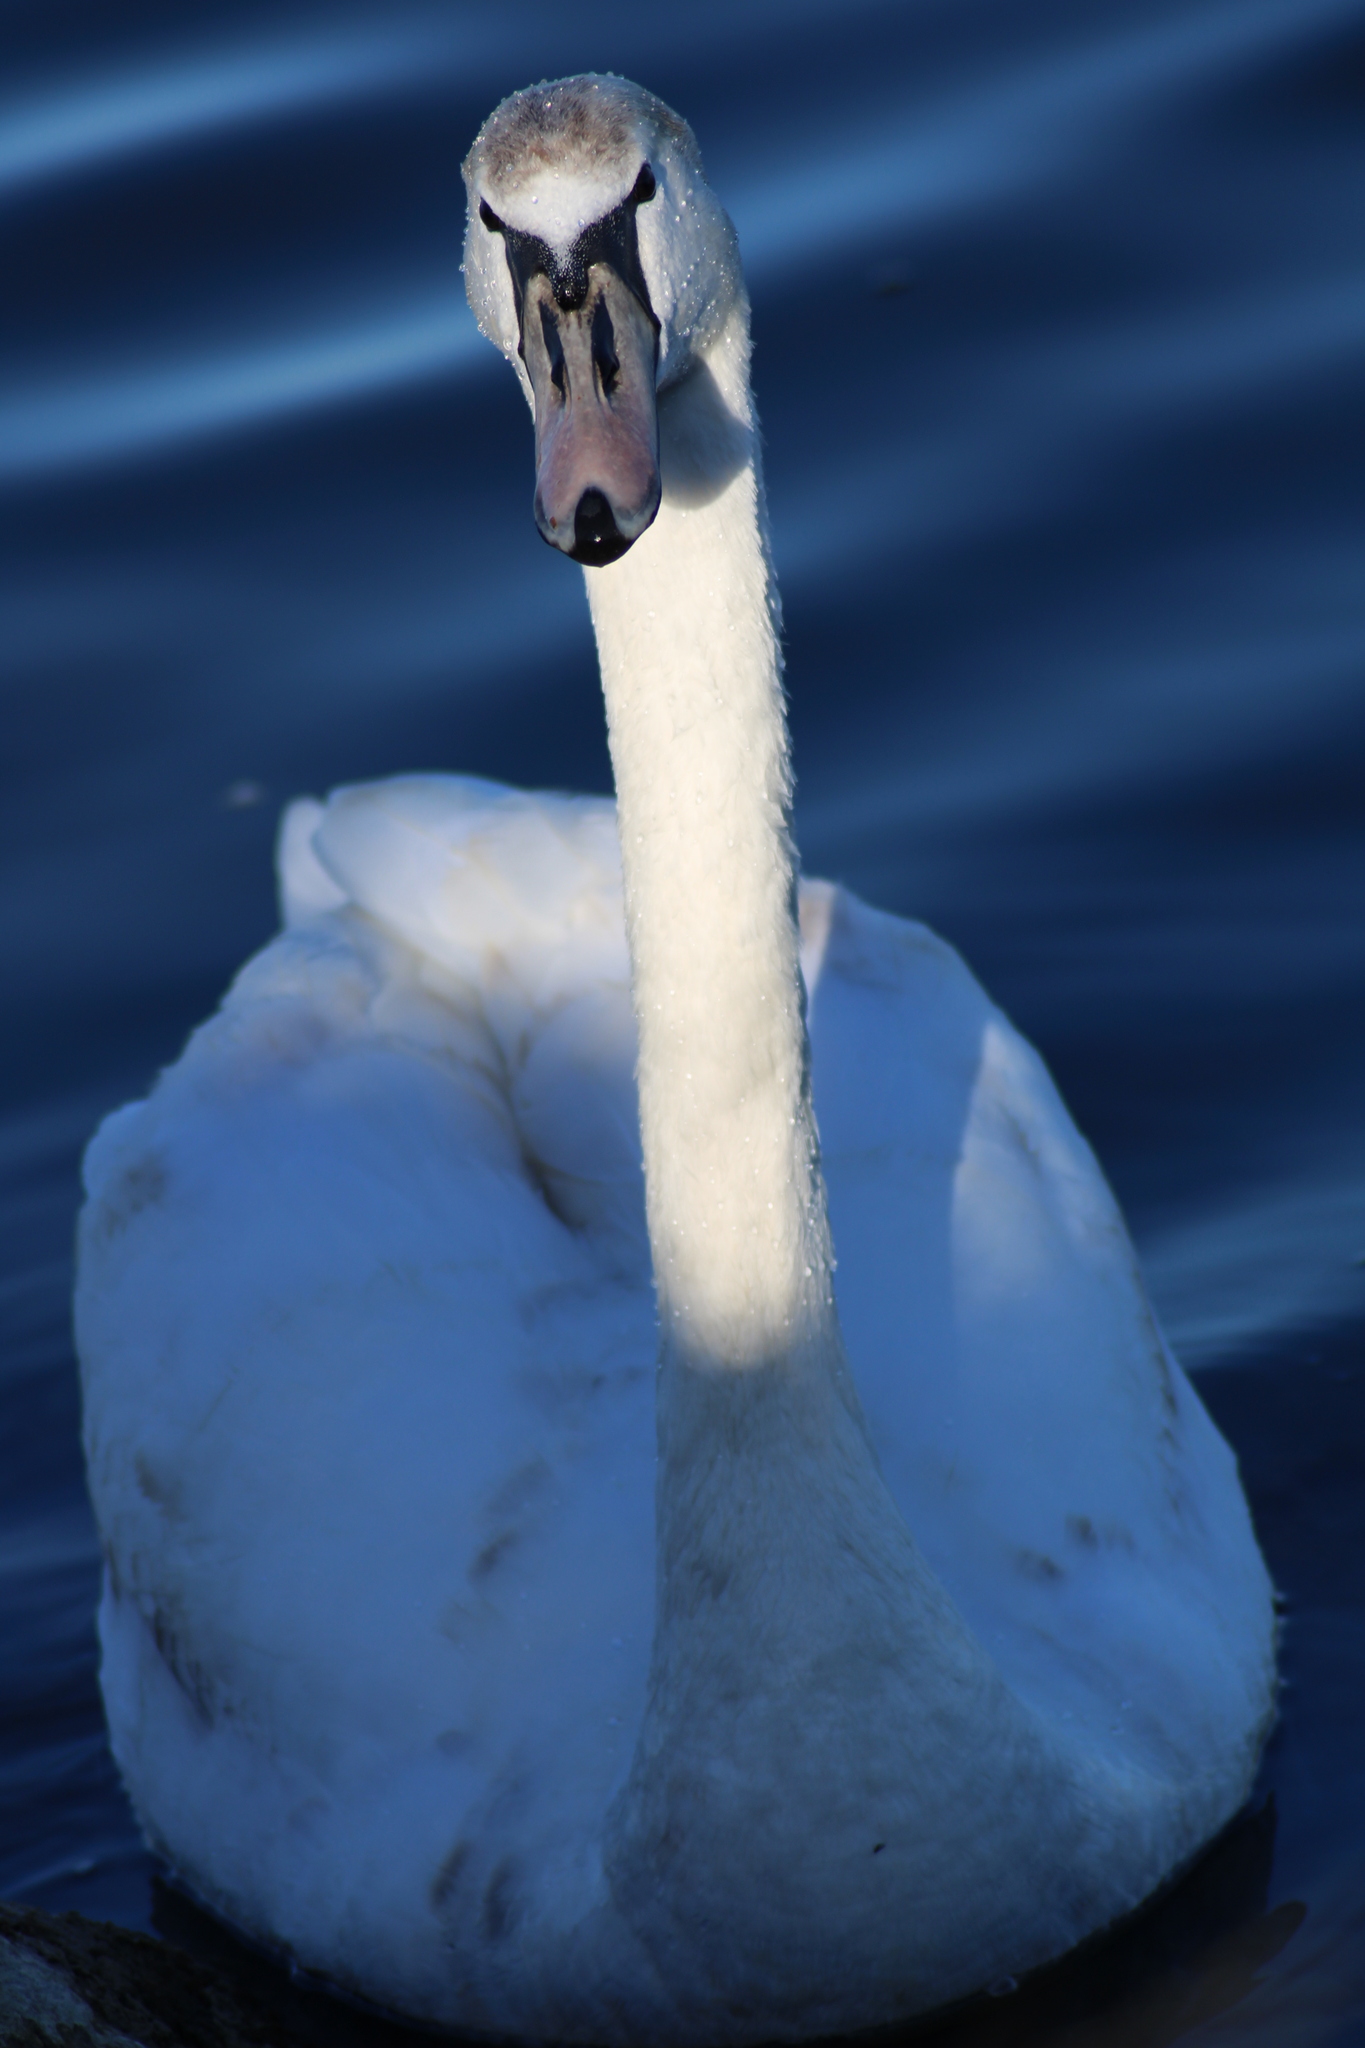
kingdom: Animalia
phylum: Chordata
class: Aves
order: Anseriformes
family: Anatidae
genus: Cygnus
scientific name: Cygnus olor
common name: Mute swan
